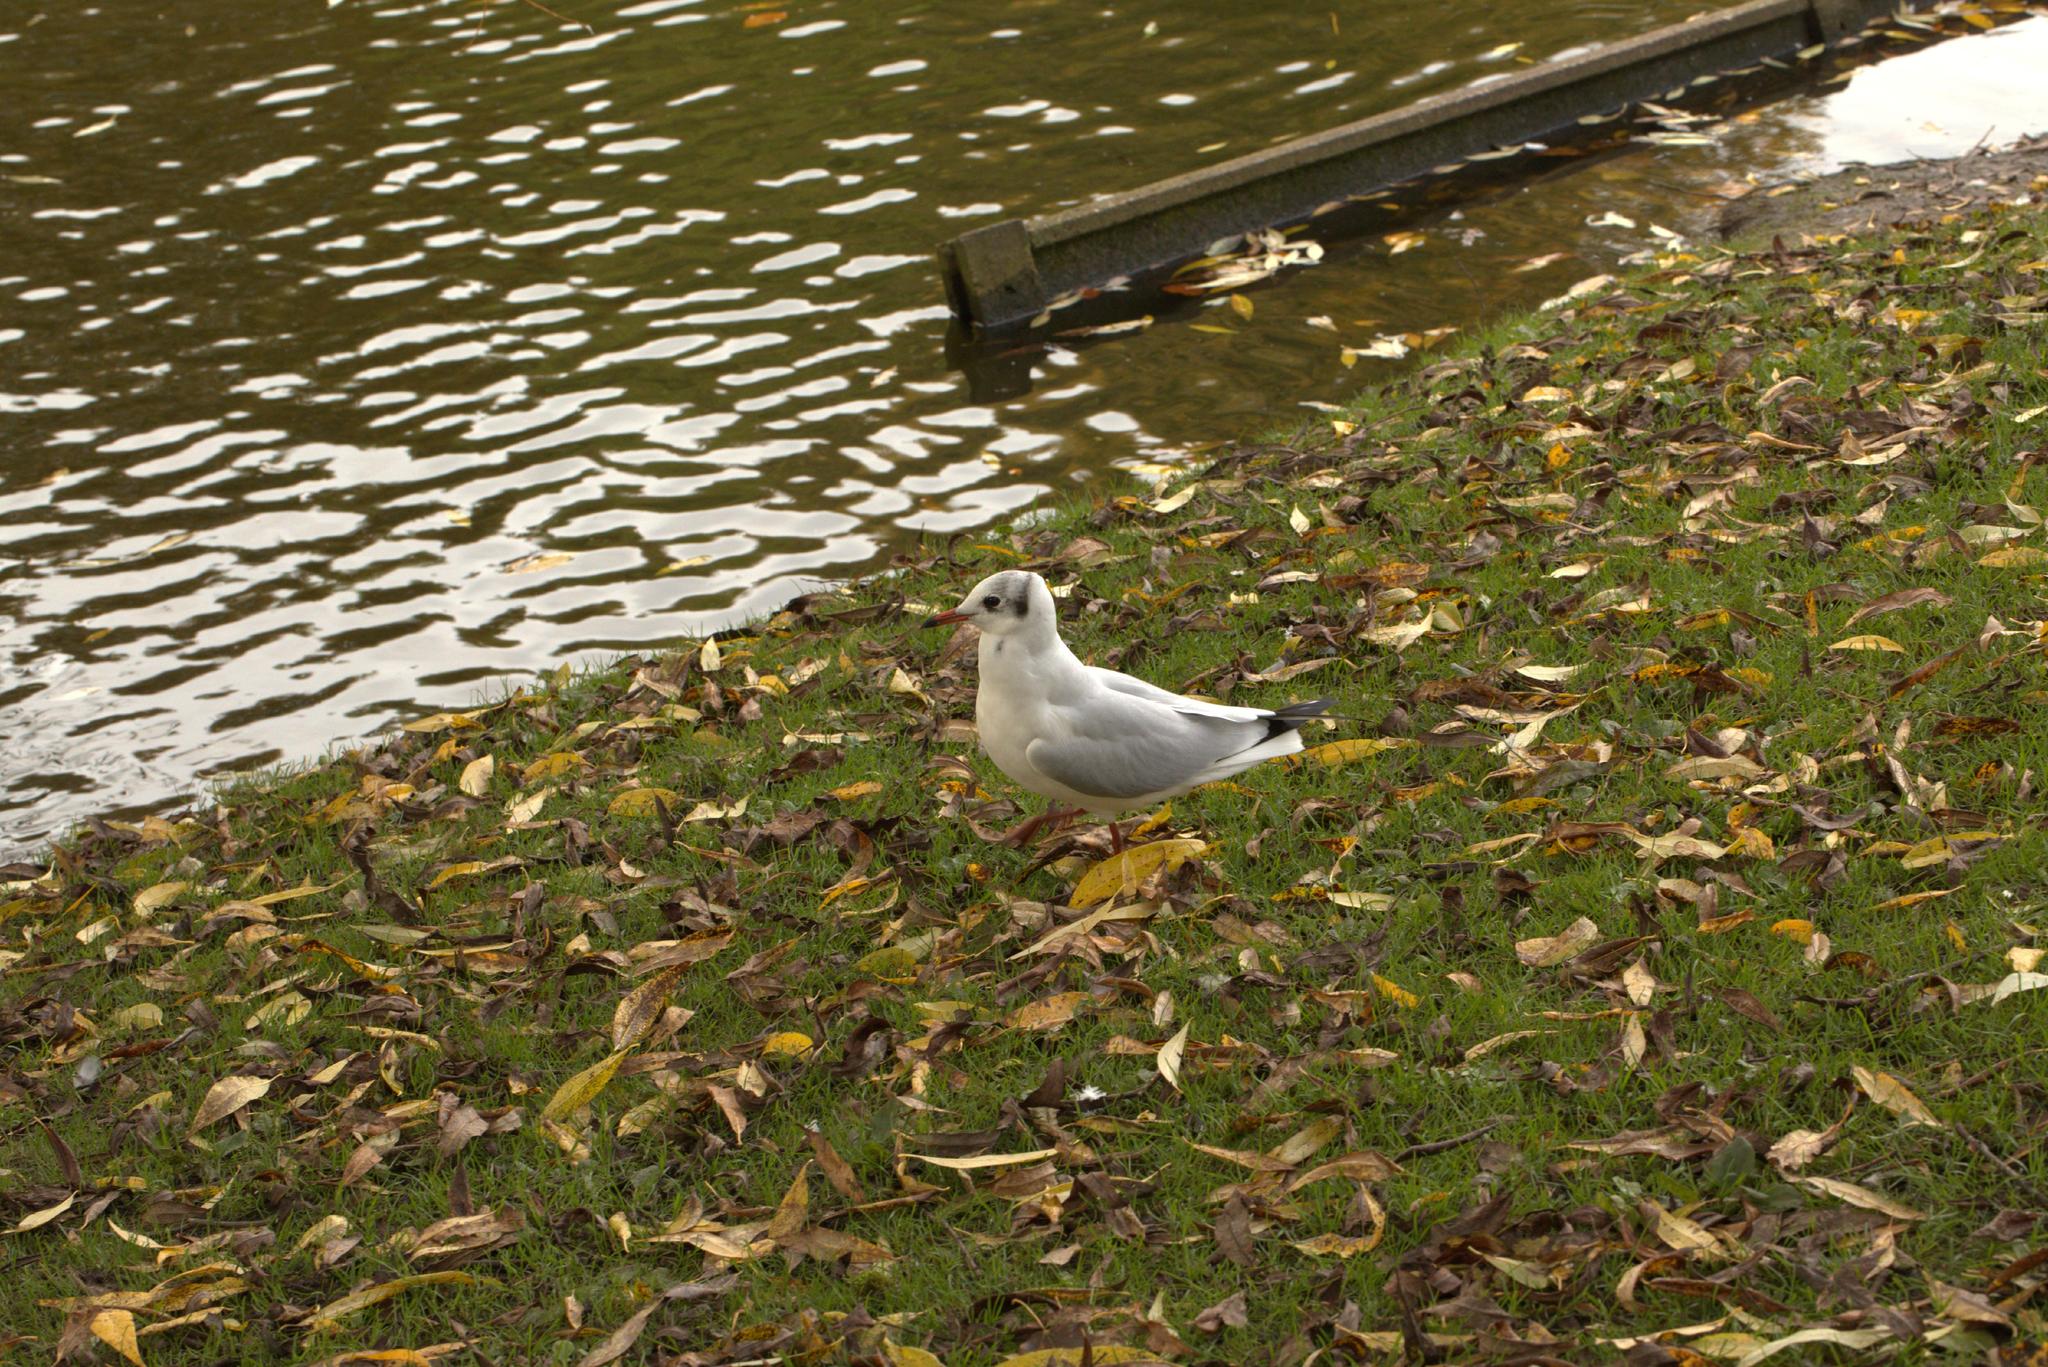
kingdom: Animalia
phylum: Chordata
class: Aves
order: Charadriiformes
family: Laridae
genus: Chroicocephalus
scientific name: Chroicocephalus ridibundus
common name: Black-headed gull
